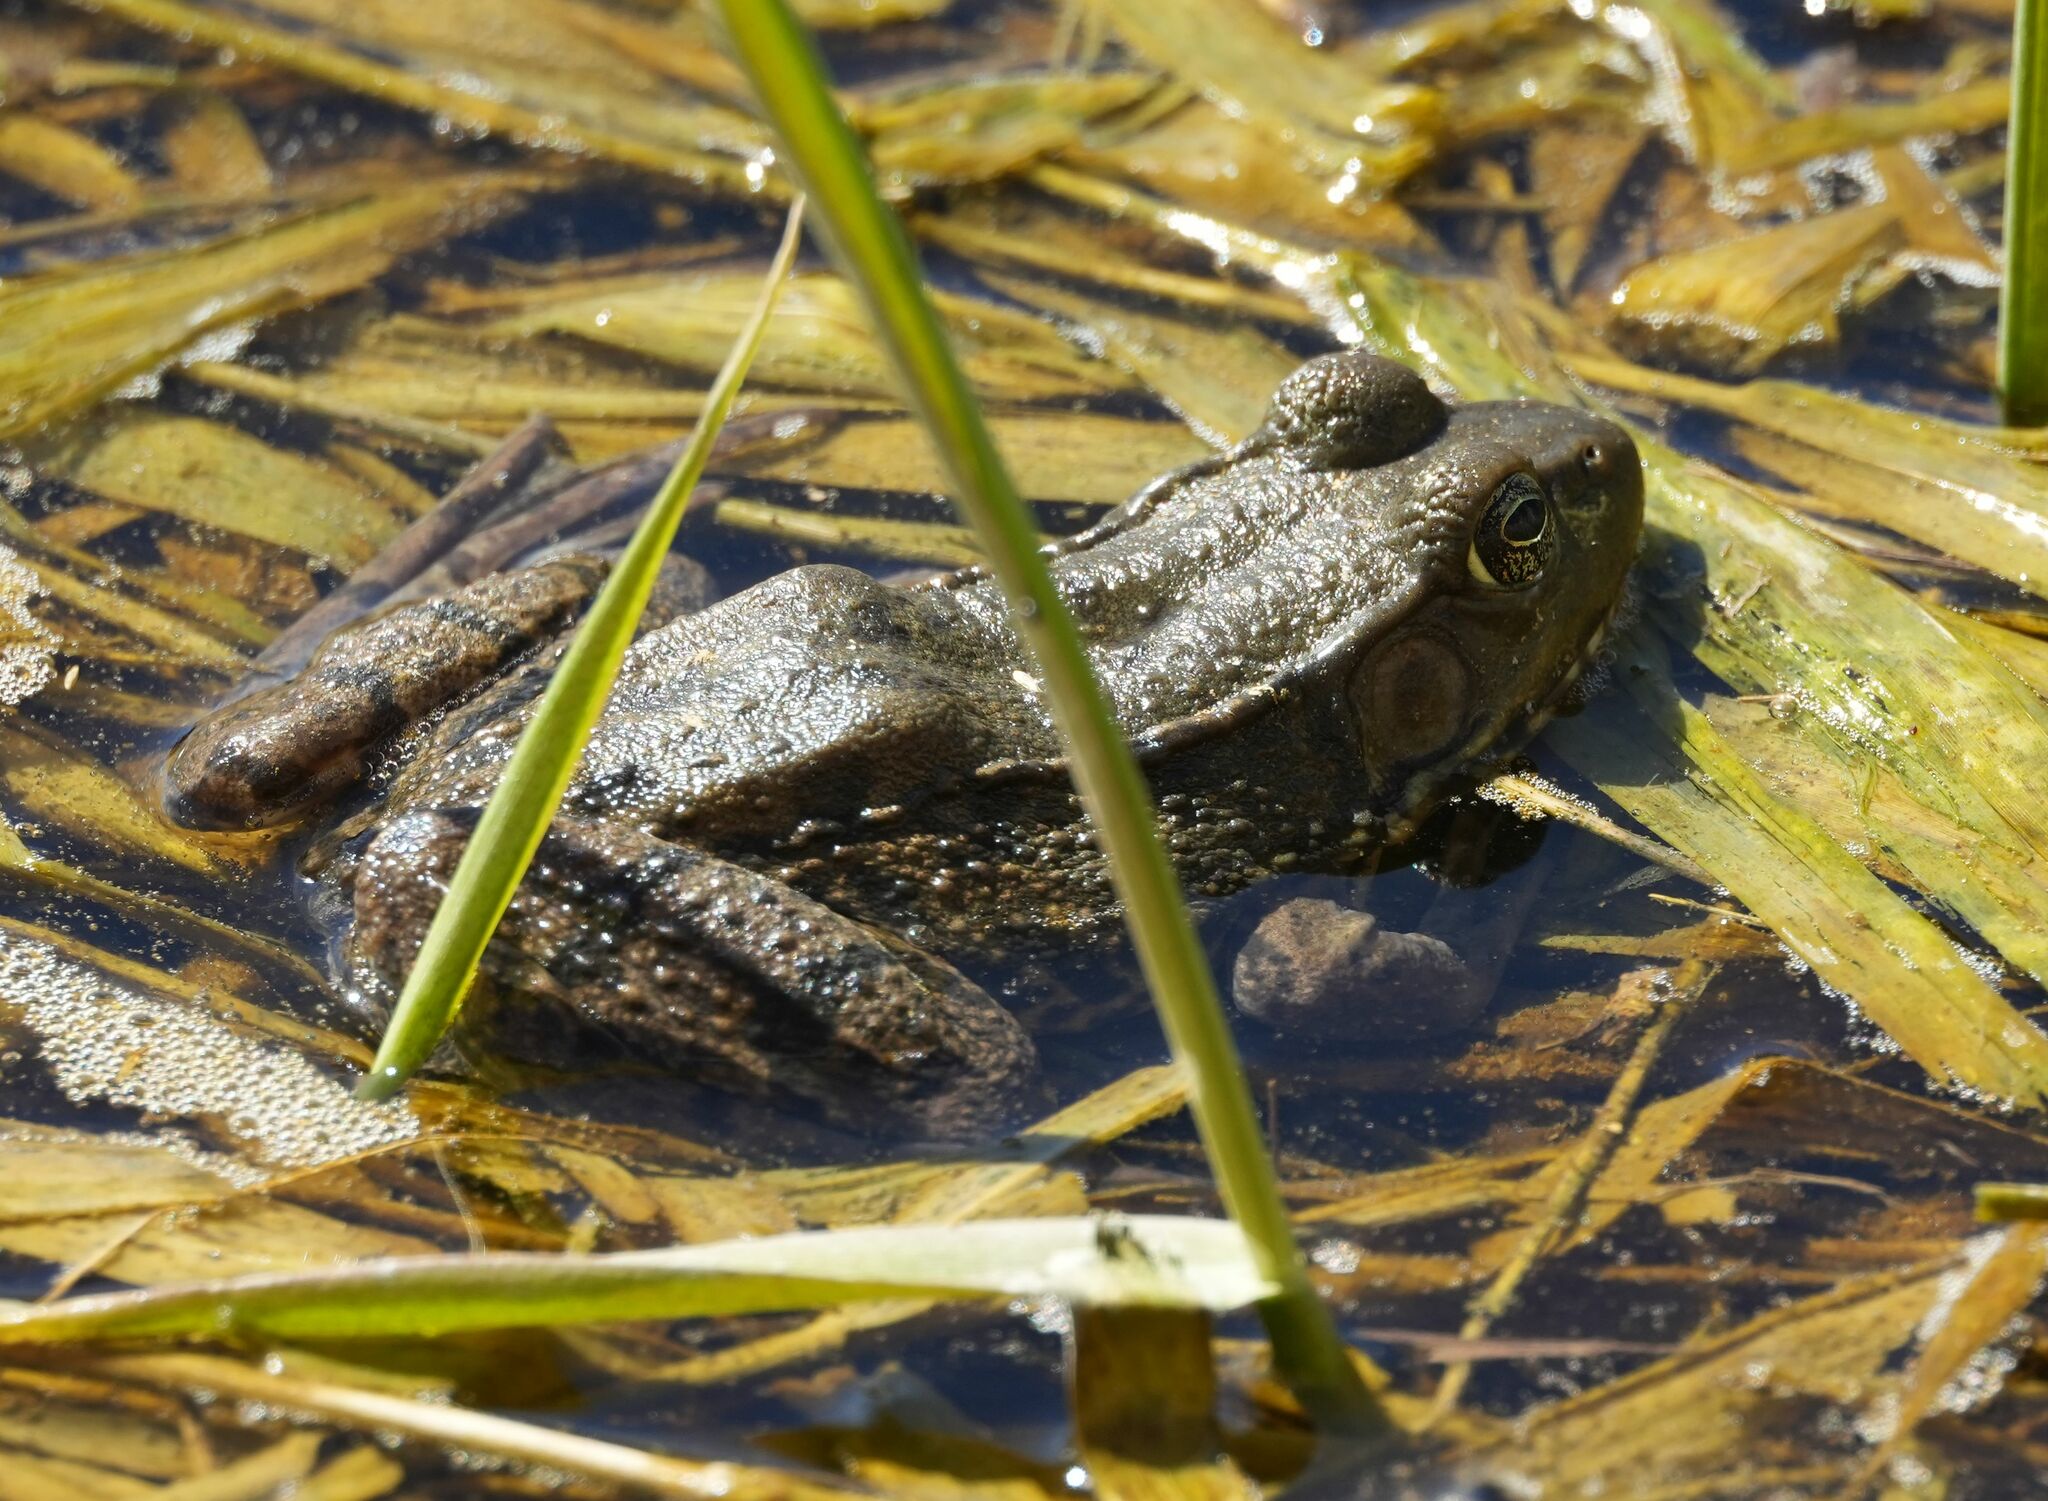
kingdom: Animalia
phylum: Chordata
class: Amphibia
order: Anura
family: Ranidae
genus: Lithobates
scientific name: Lithobates clamitans
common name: Green frog
